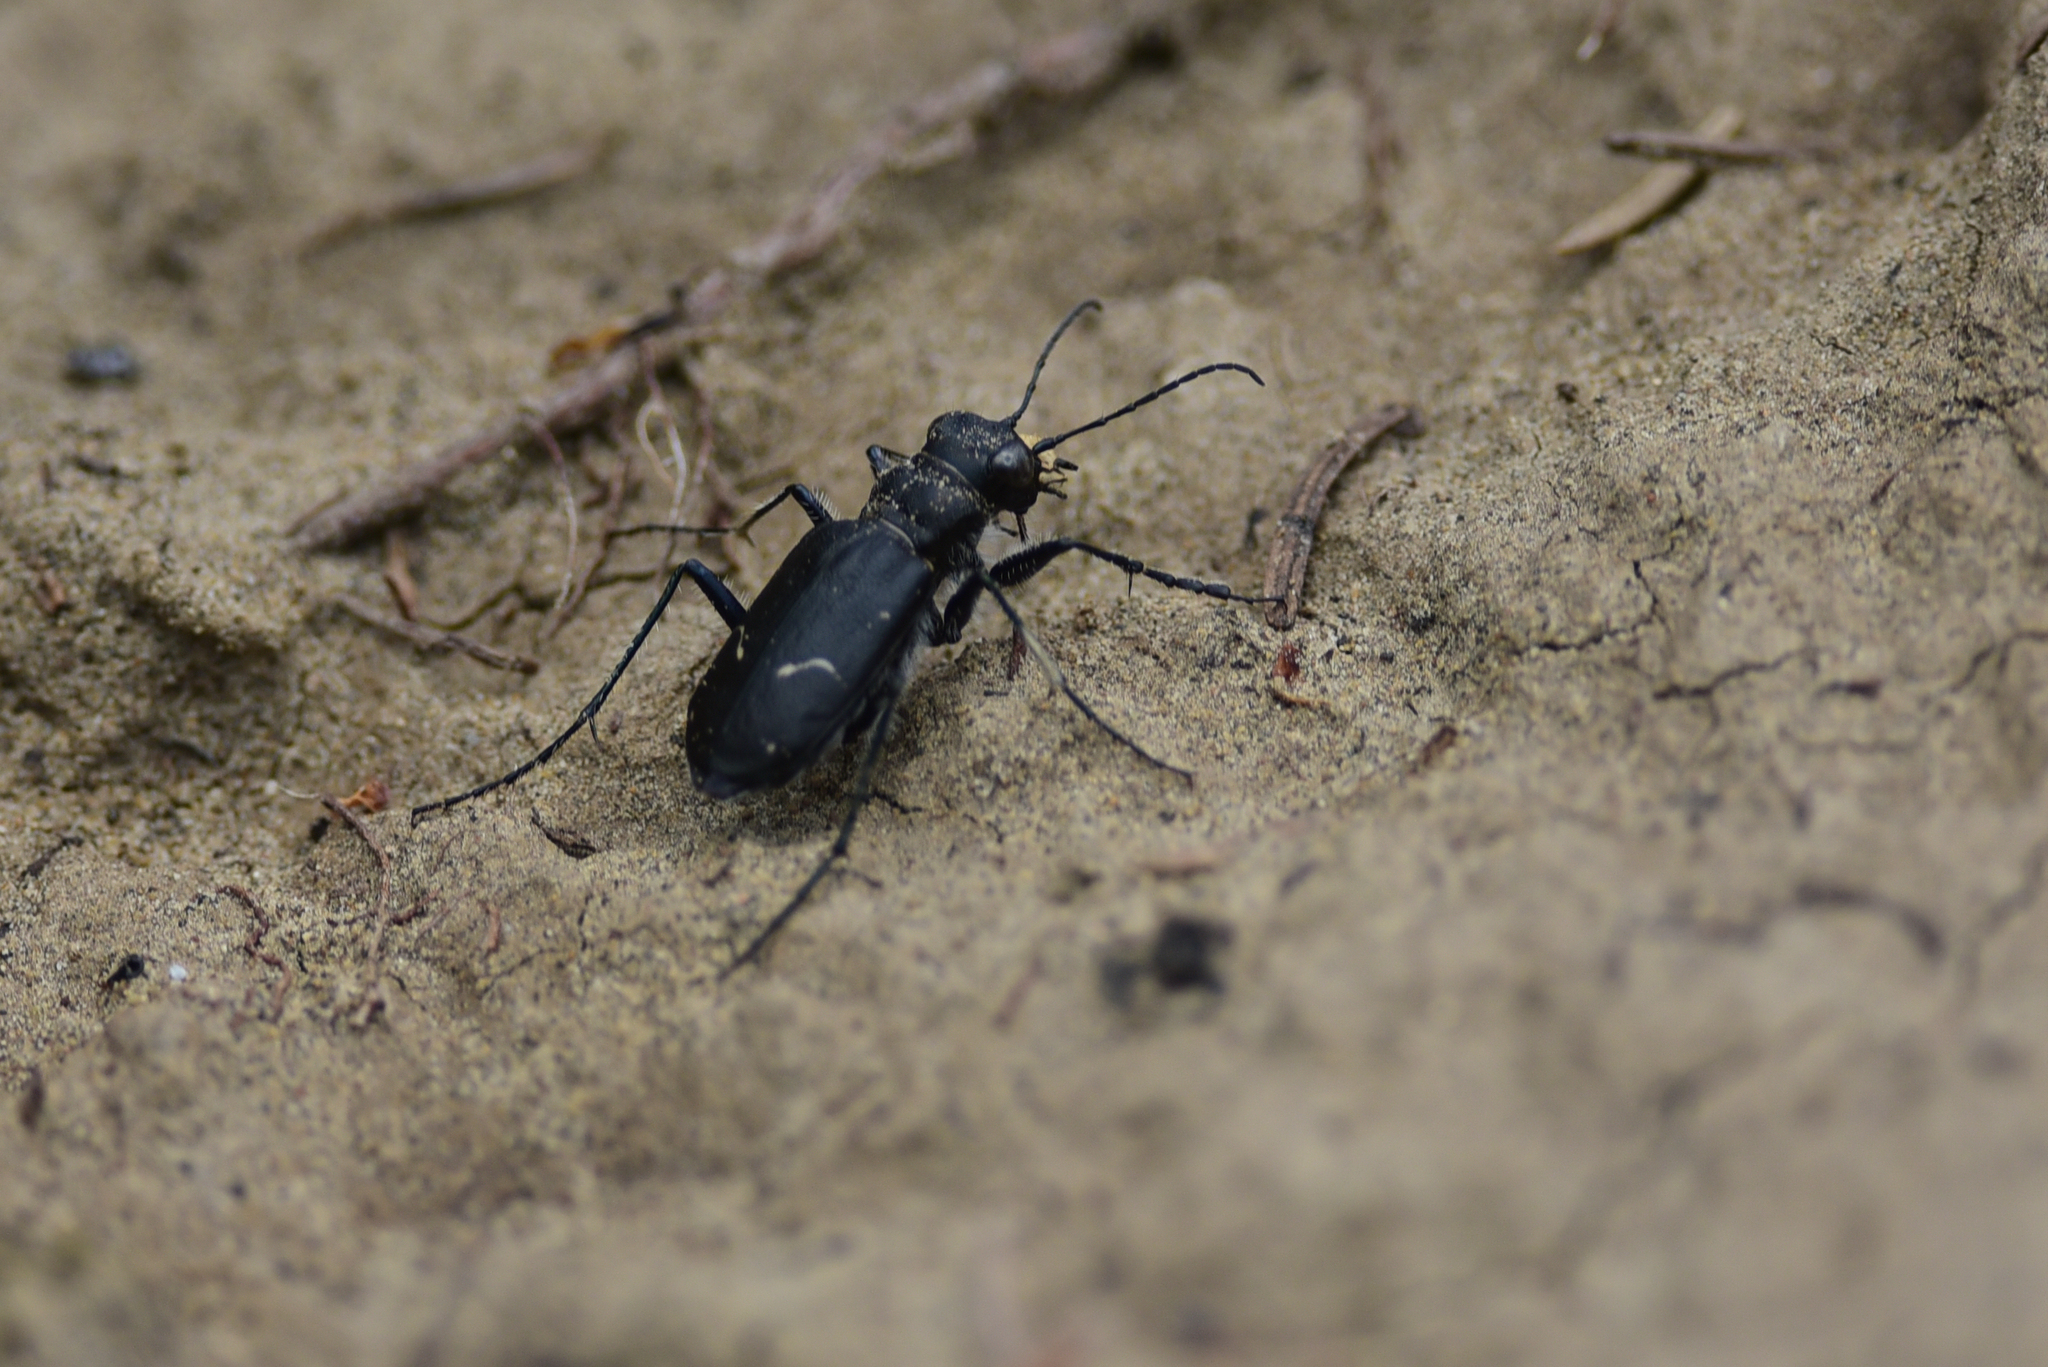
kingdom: Animalia
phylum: Arthropoda
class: Insecta
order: Coleoptera
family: Carabidae
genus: Cicindela
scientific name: Cicindela longilabris
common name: Boreal long-lipped tiger beetle
